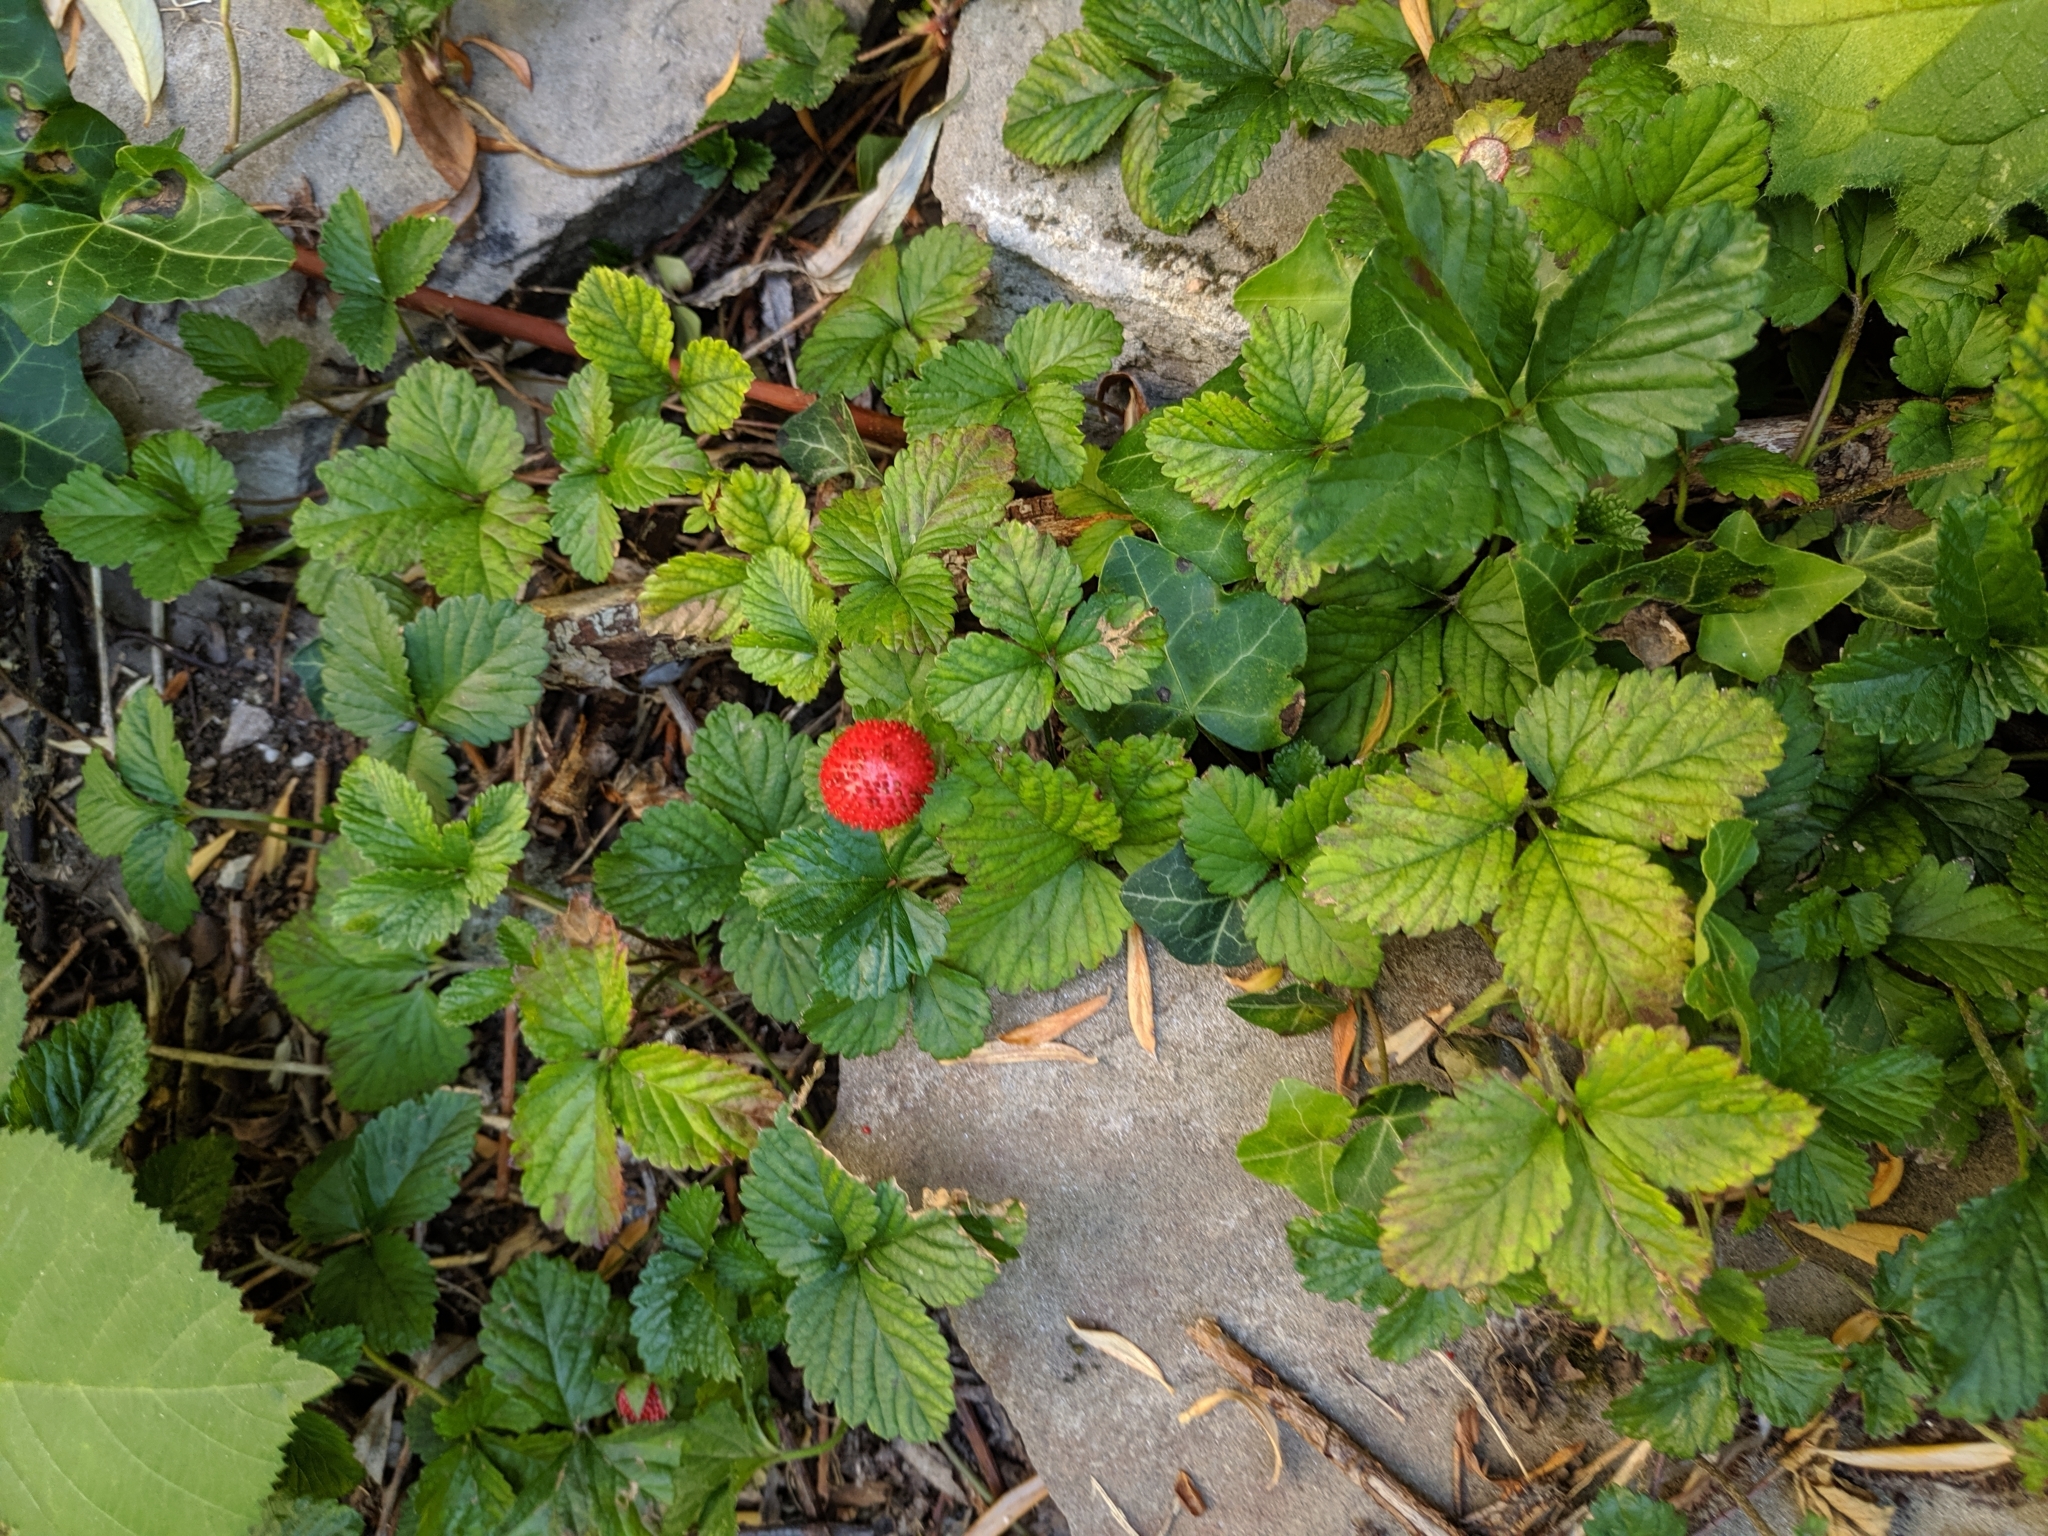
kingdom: Plantae
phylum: Tracheophyta
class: Magnoliopsida
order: Rosales
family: Rosaceae
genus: Potentilla
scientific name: Potentilla indica
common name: Yellow-flowered strawberry
